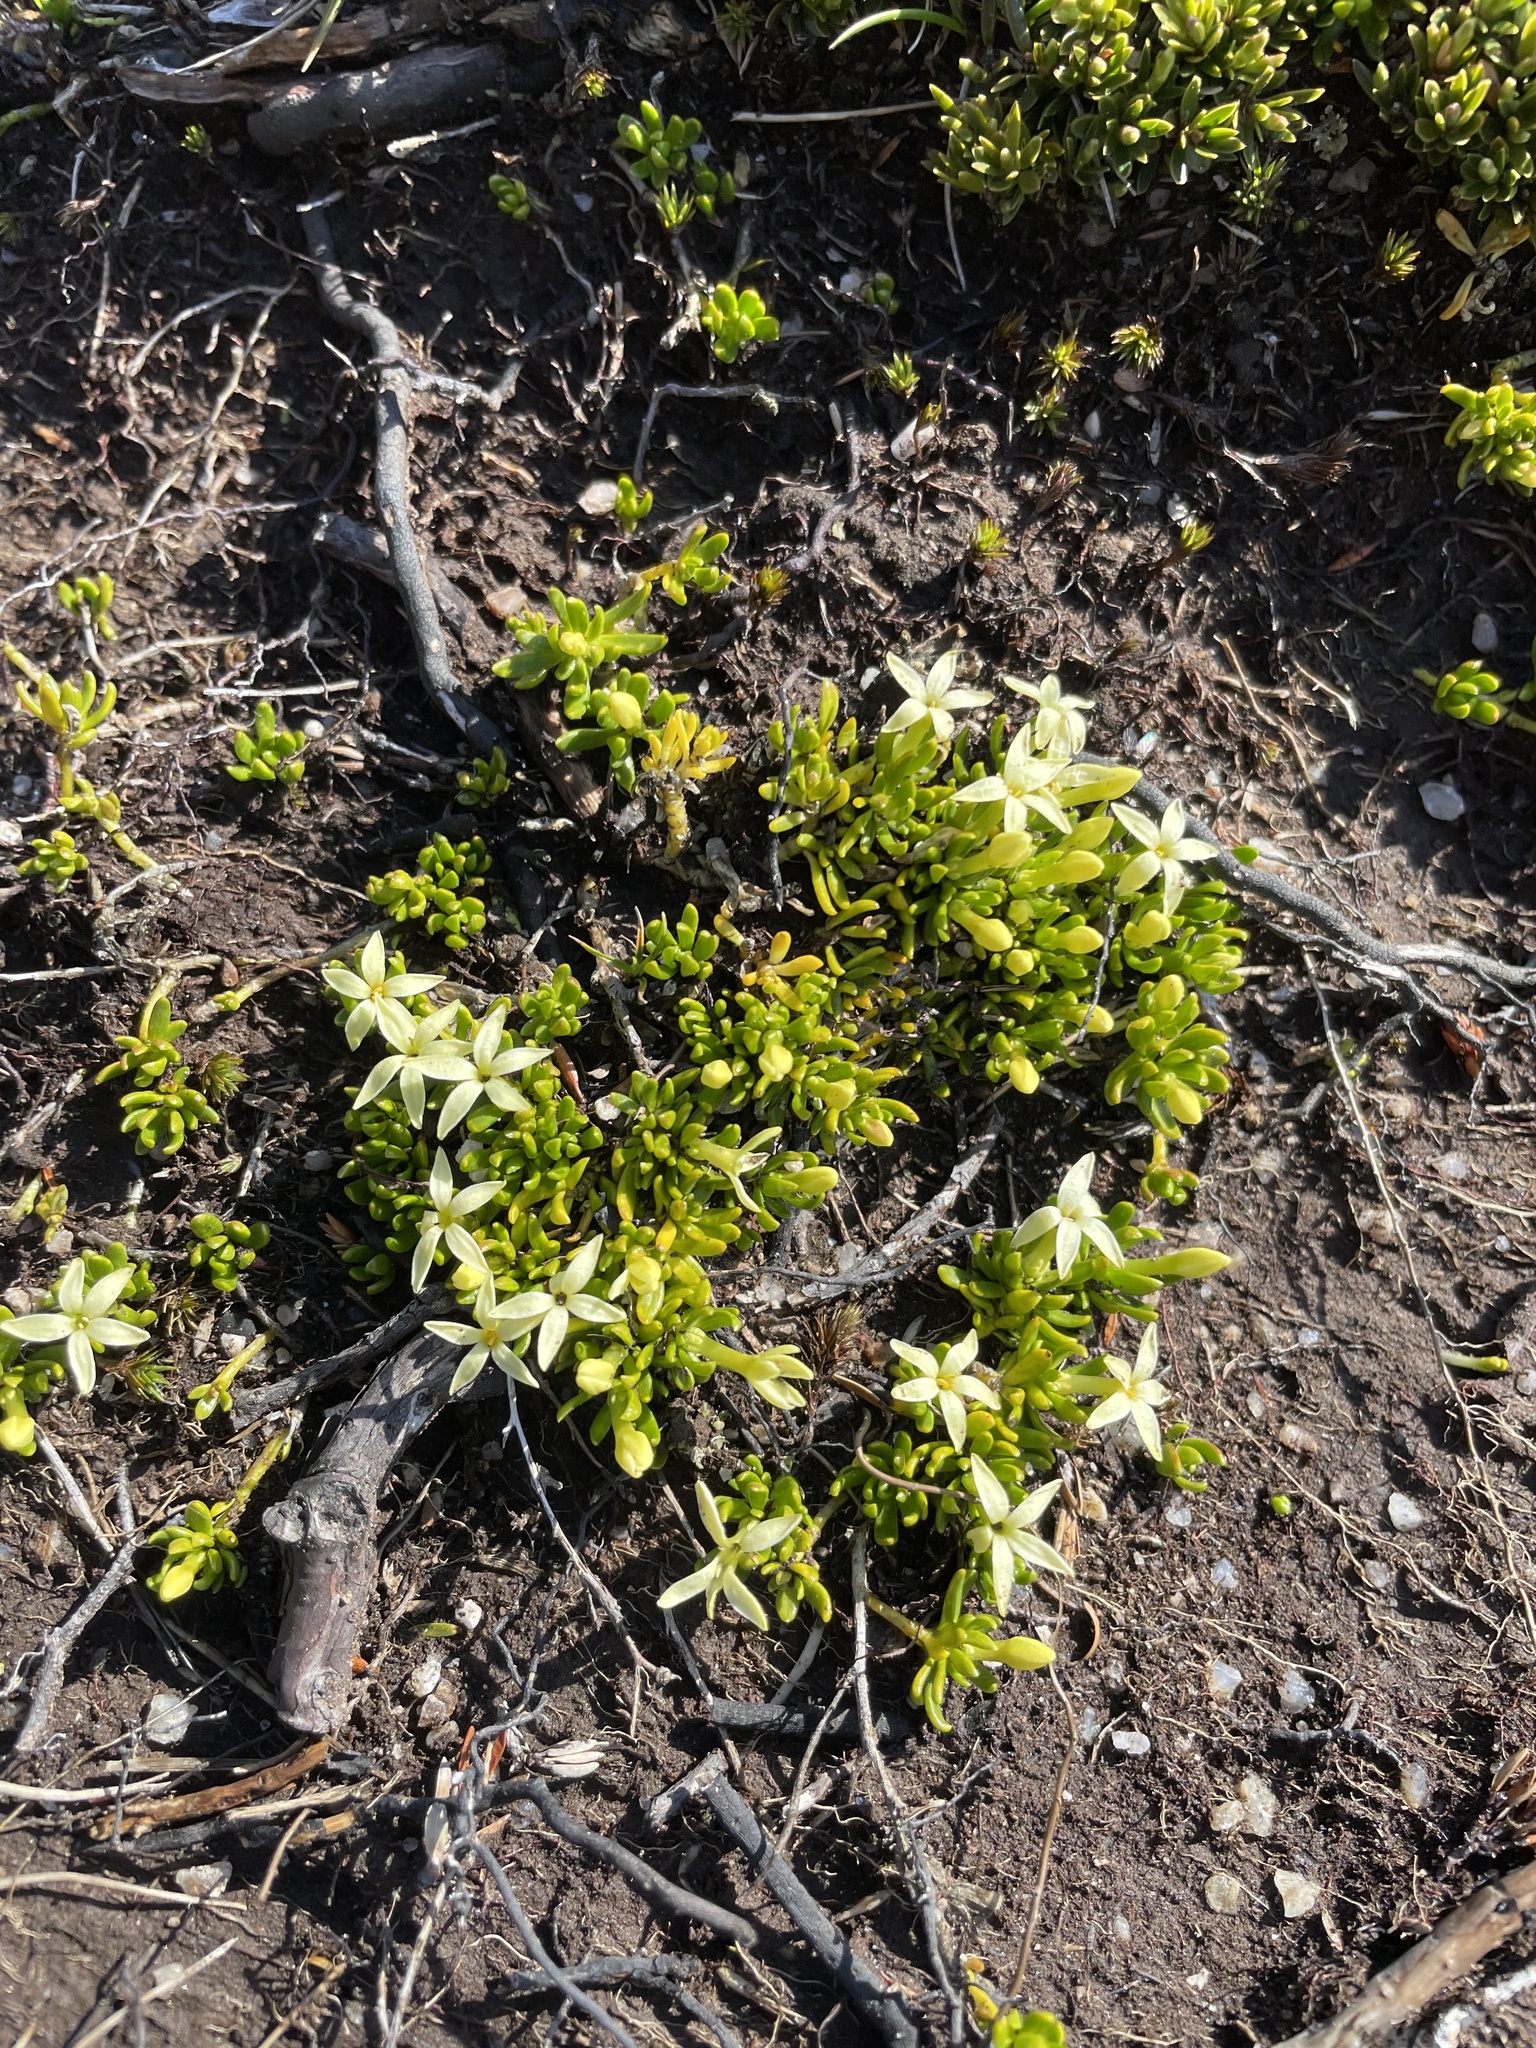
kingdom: Plantae
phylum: Tracheophyta
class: Magnoliopsida
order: Celastrales
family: Celastraceae
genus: Stackhousia
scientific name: Stackhousia pulvinaris
